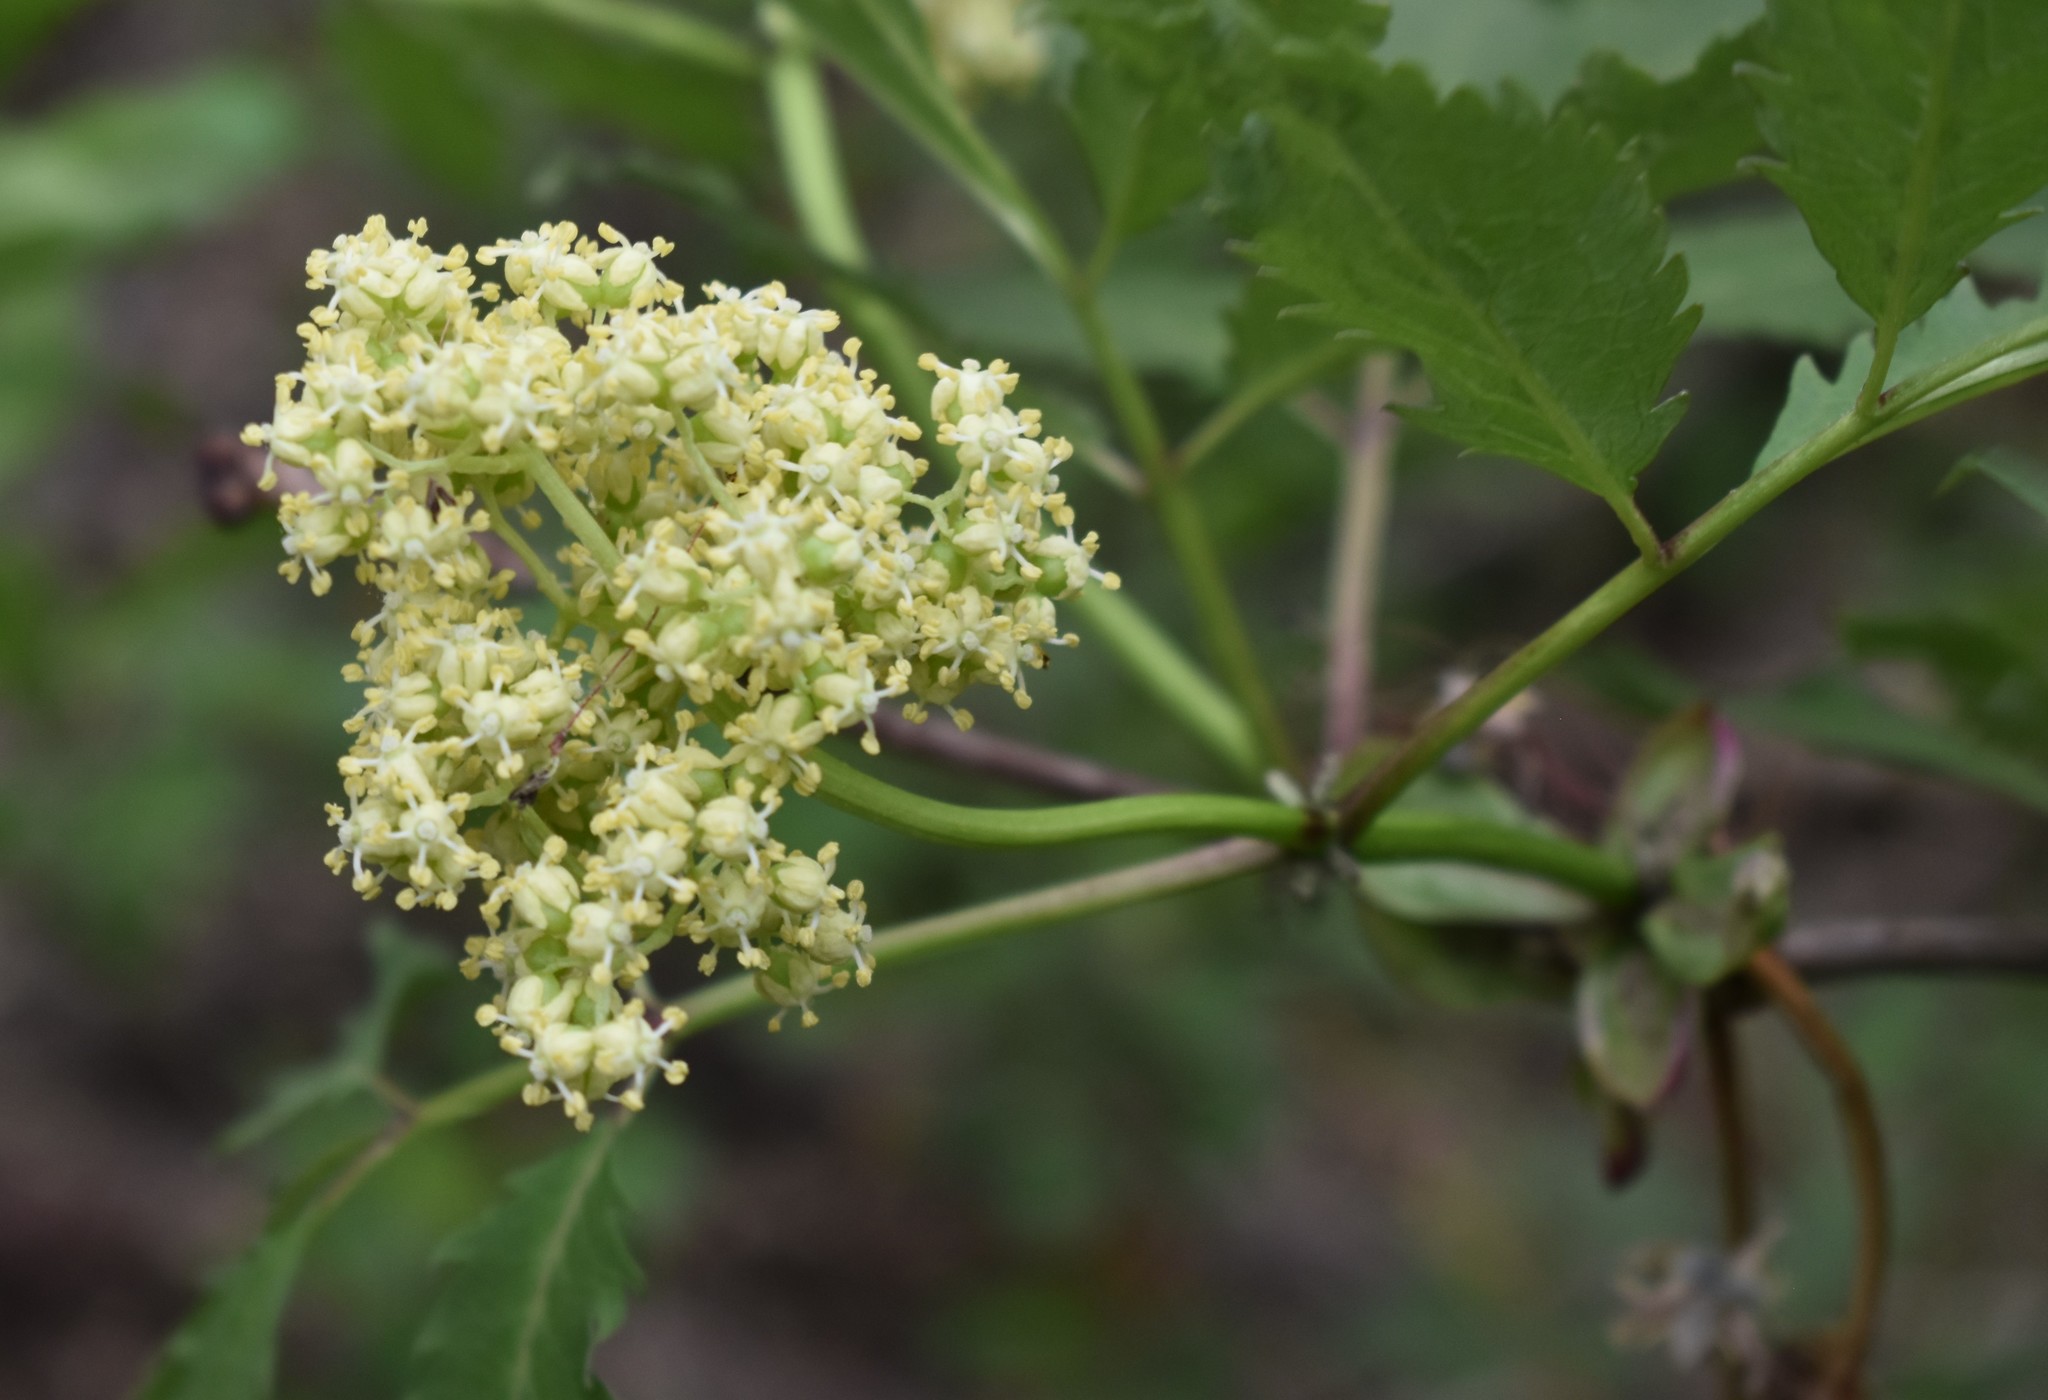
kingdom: Plantae
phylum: Tracheophyta
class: Magnoliopsida
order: Dipsacales
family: Viburnaceae
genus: Sambucus
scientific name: Sambucus racemosa
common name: Red-berried elder
